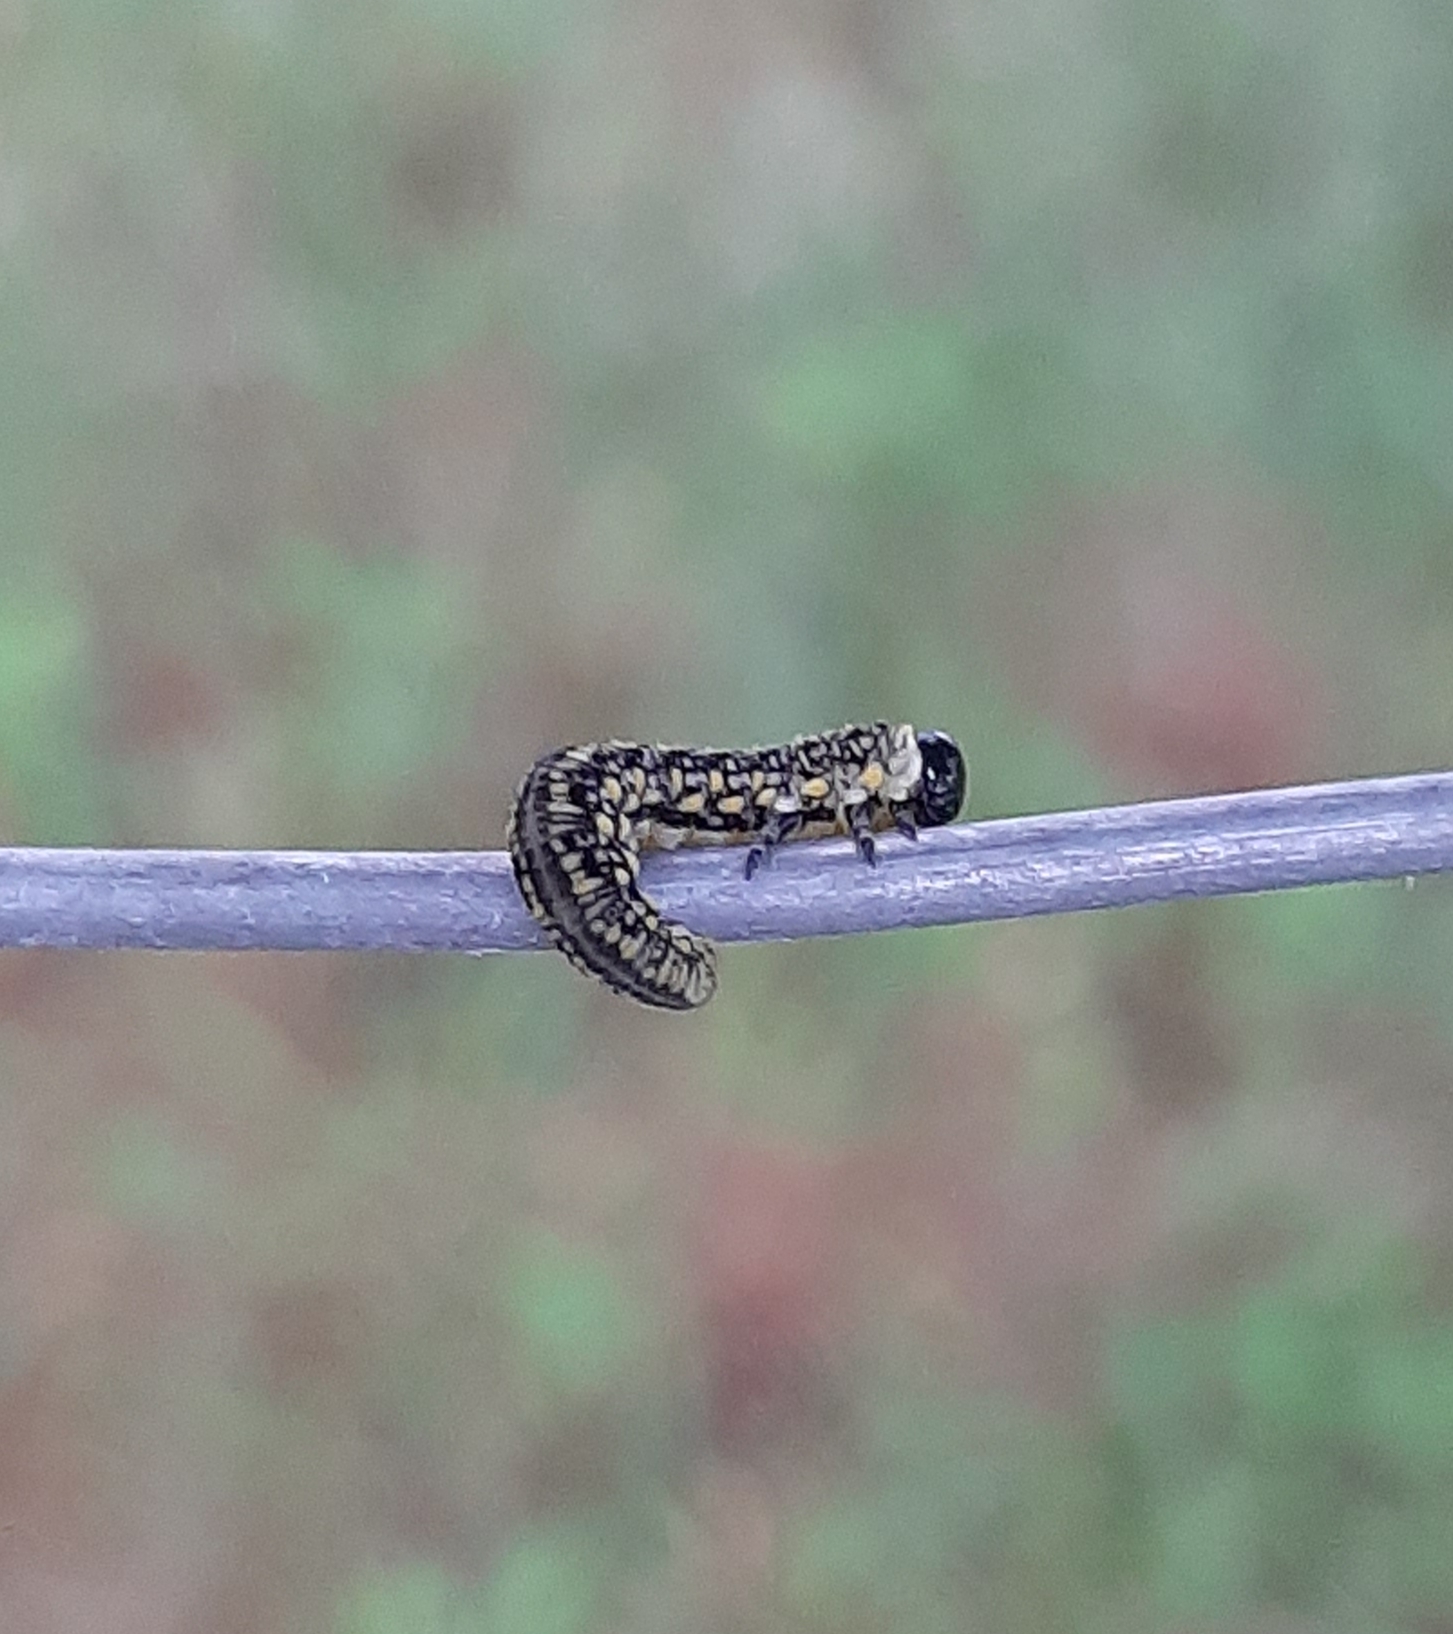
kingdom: Animalia
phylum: Arthropoda
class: Insecta
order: Hymenoptera
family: Diprionidae
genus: Diprion
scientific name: Diprion similis
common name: Pine sawfly
